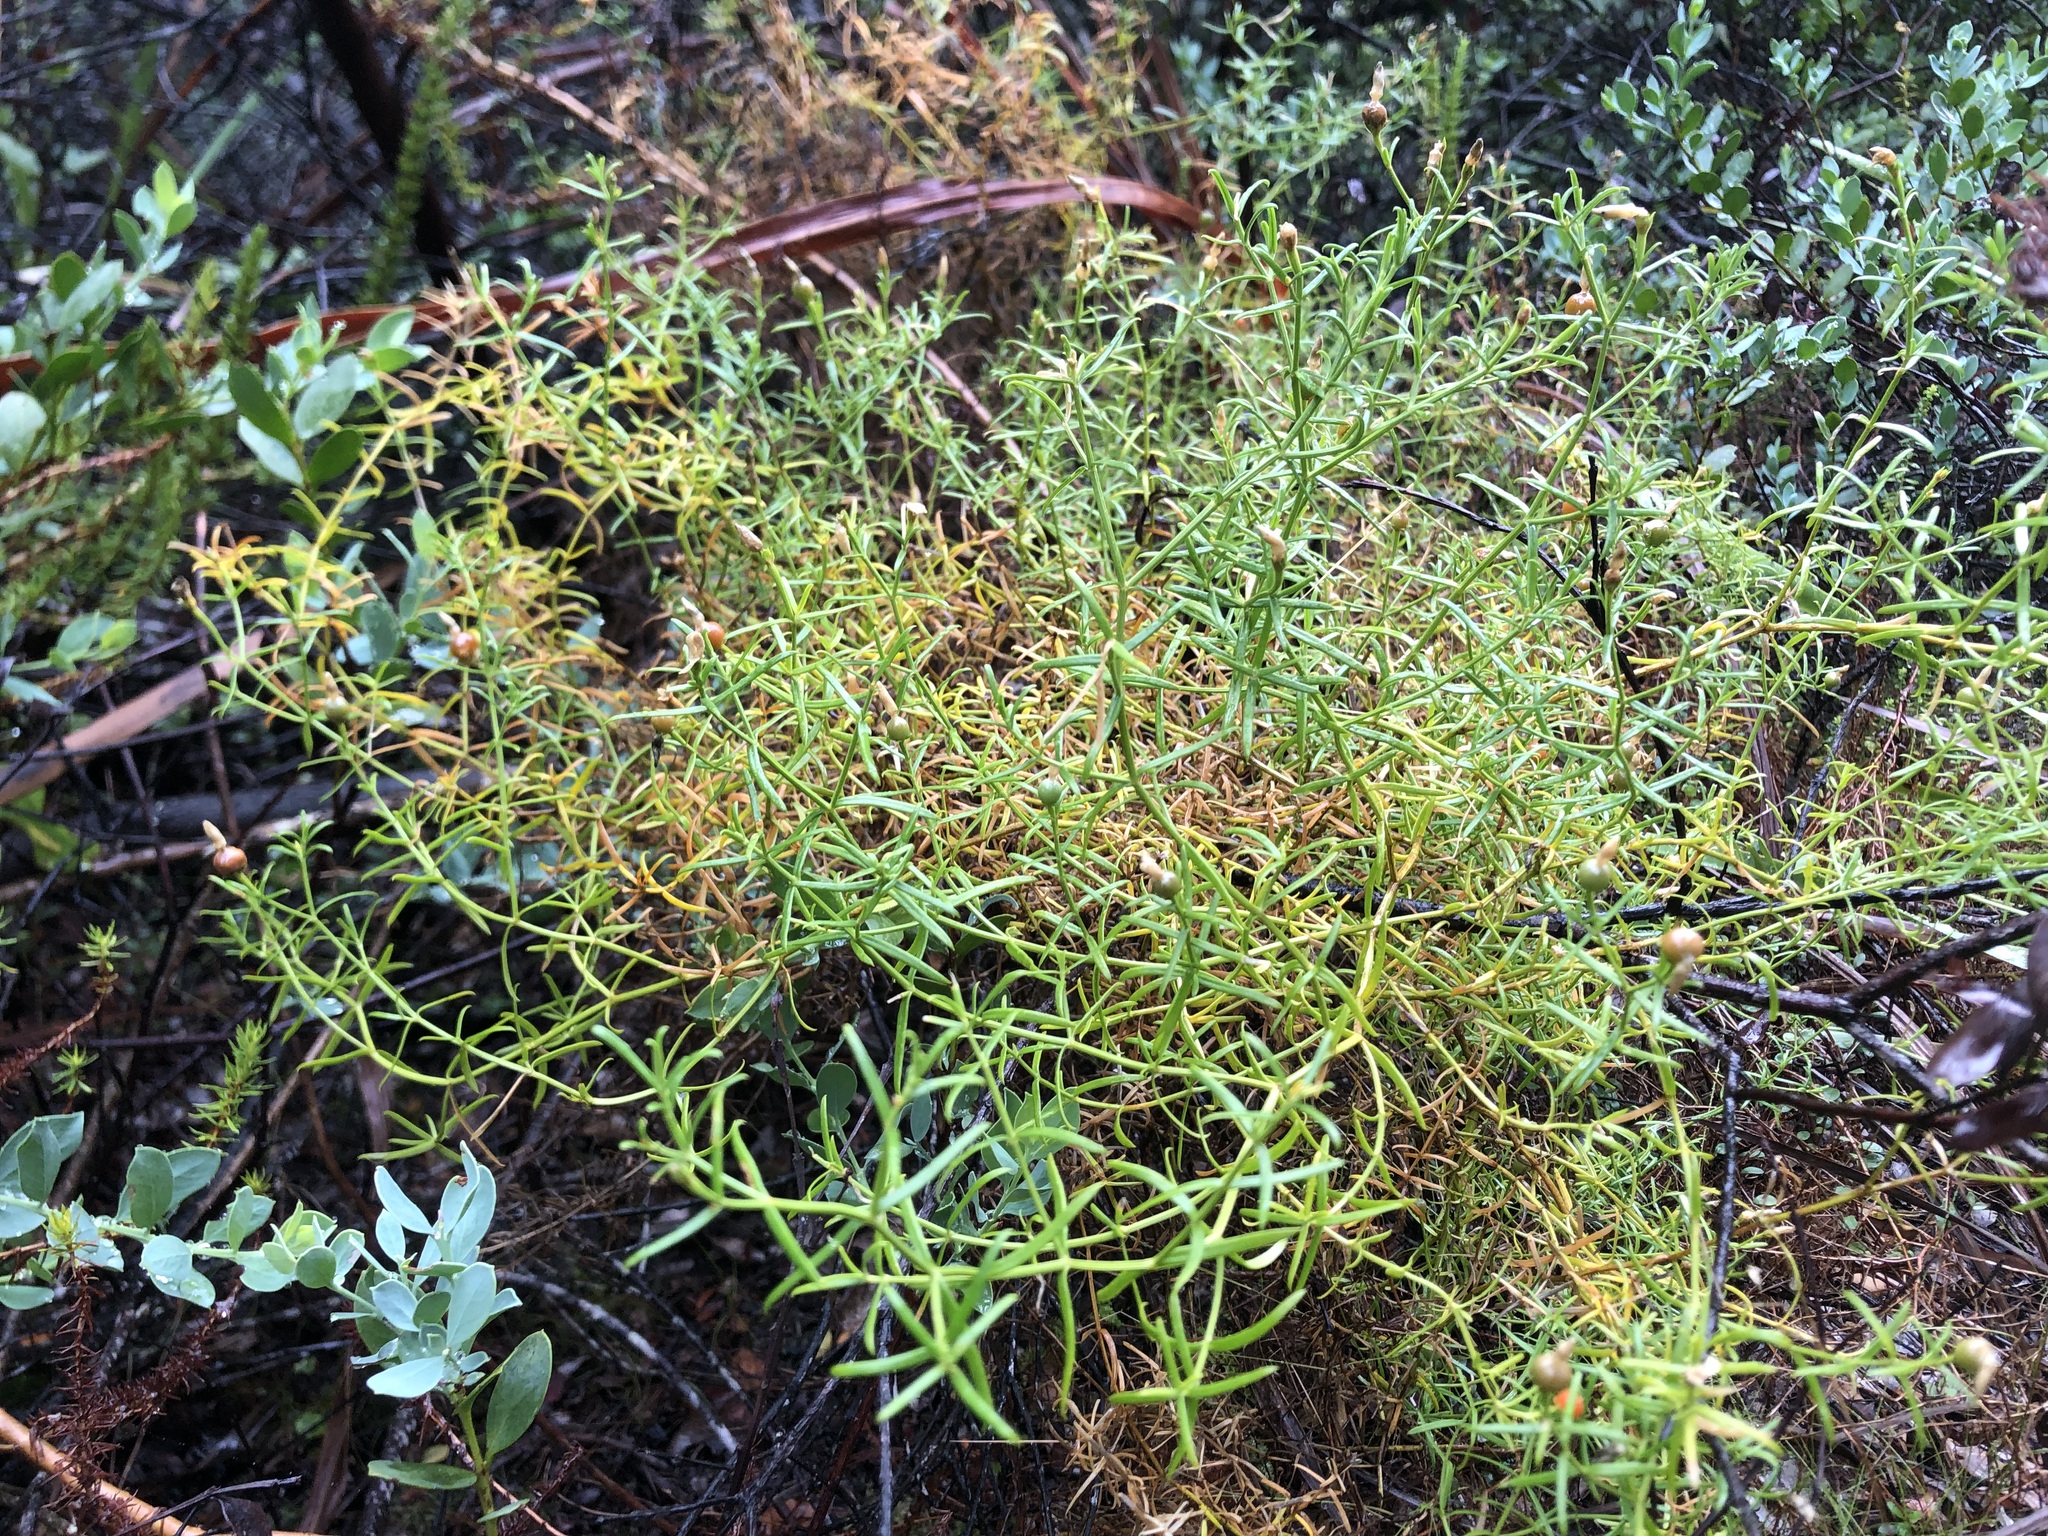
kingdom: Plantae
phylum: Tracheophyta
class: Magnoliopsida
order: Gentianales
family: Gentianaceae
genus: Chironia
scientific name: Chironia baccifera
